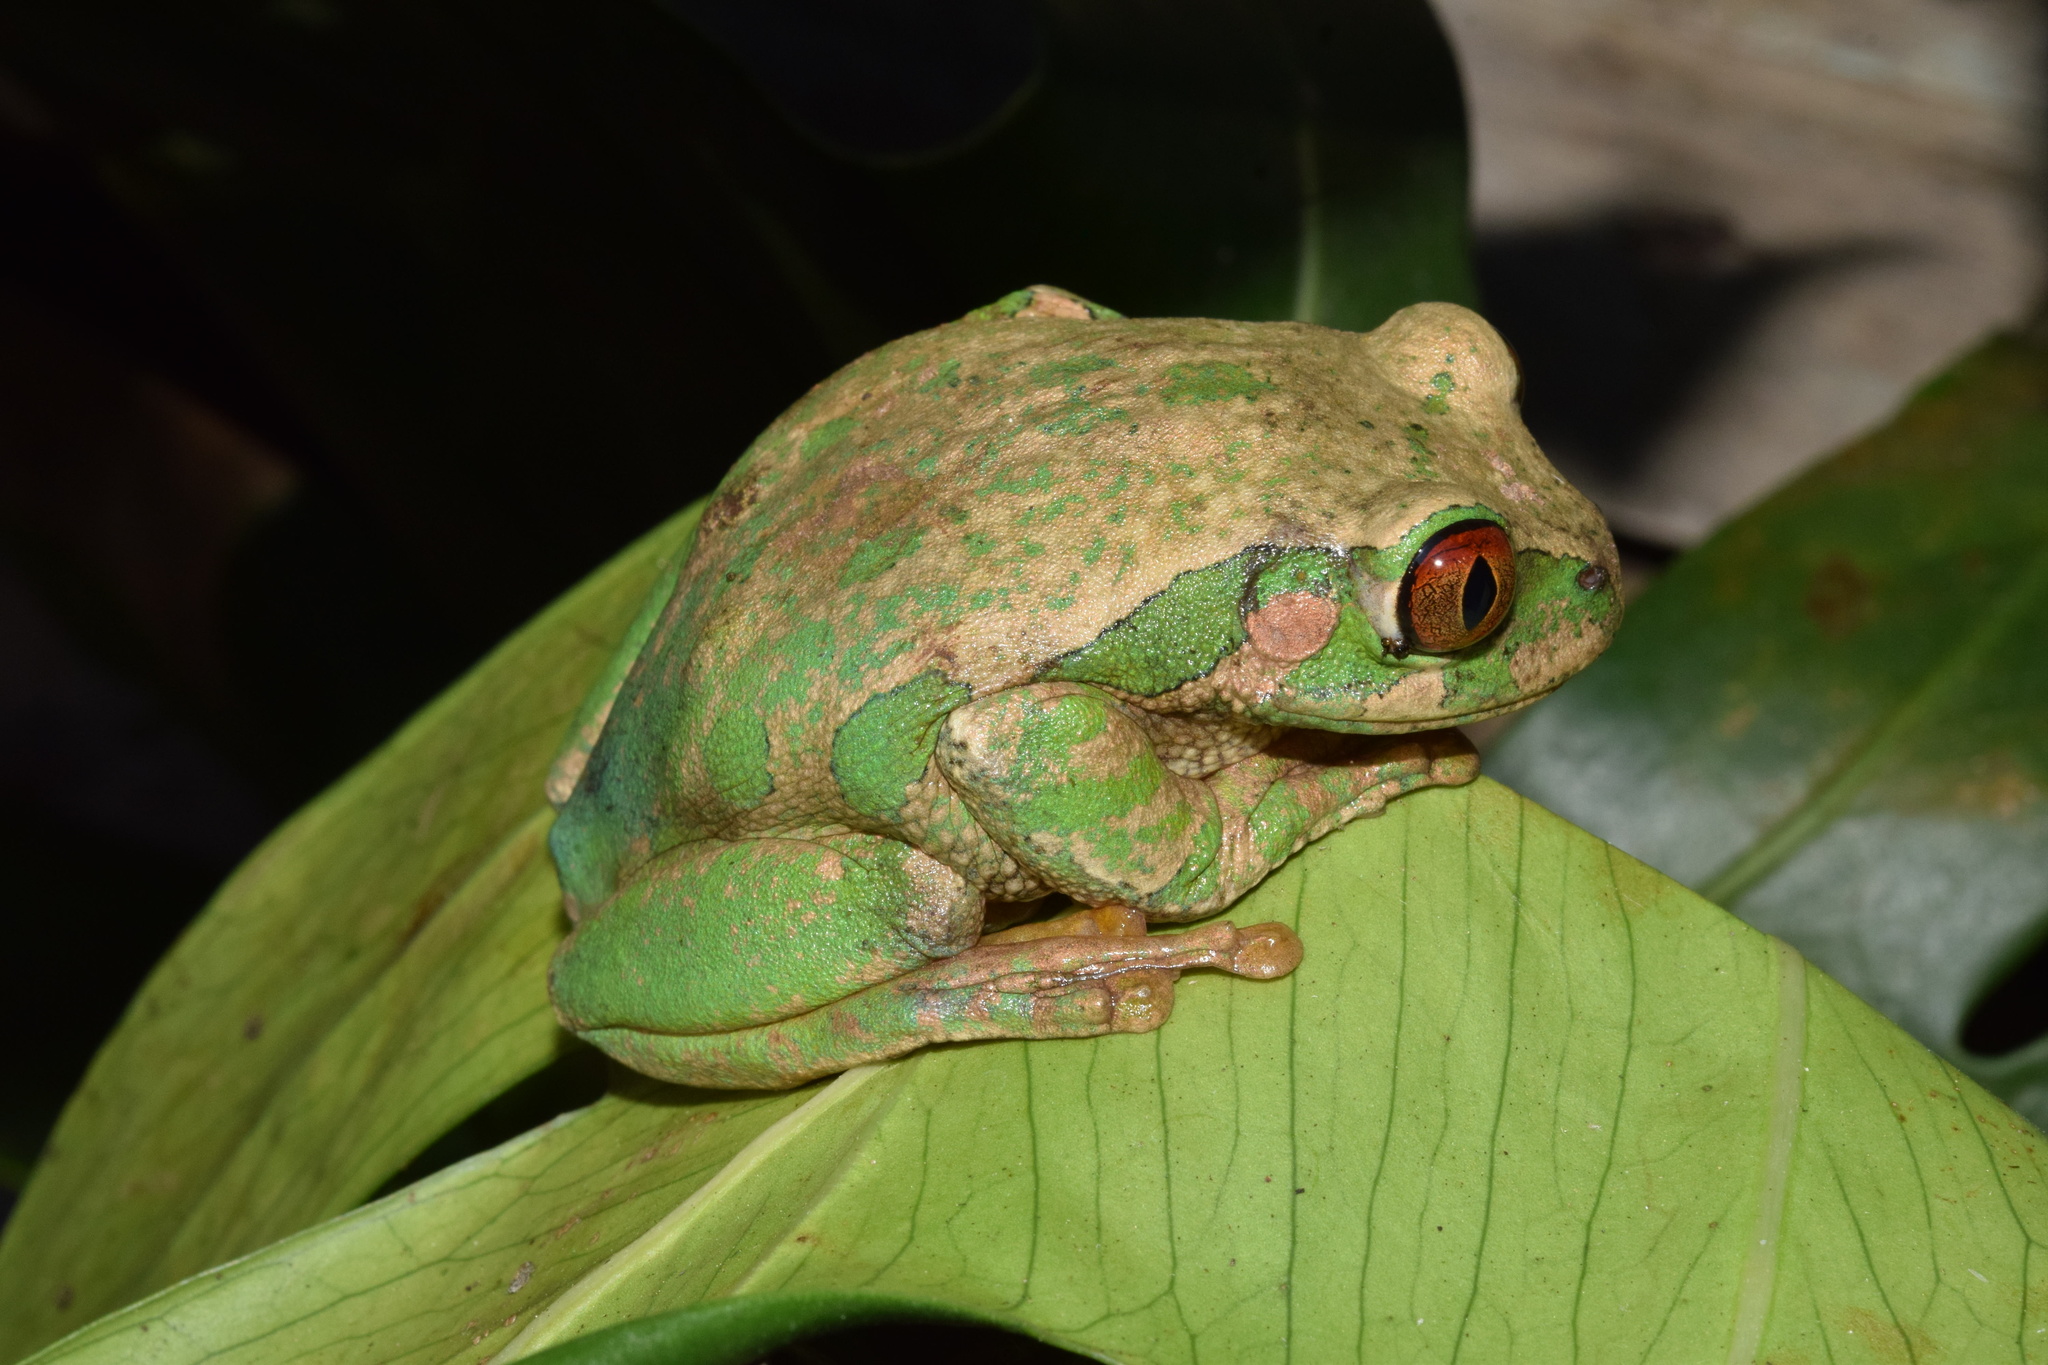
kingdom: Animalia
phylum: Chordata
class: Amphibia
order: Anura
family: Arthroleptidae
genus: Leptopelis
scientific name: Leptopelis natalensis
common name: Natal tree frog
